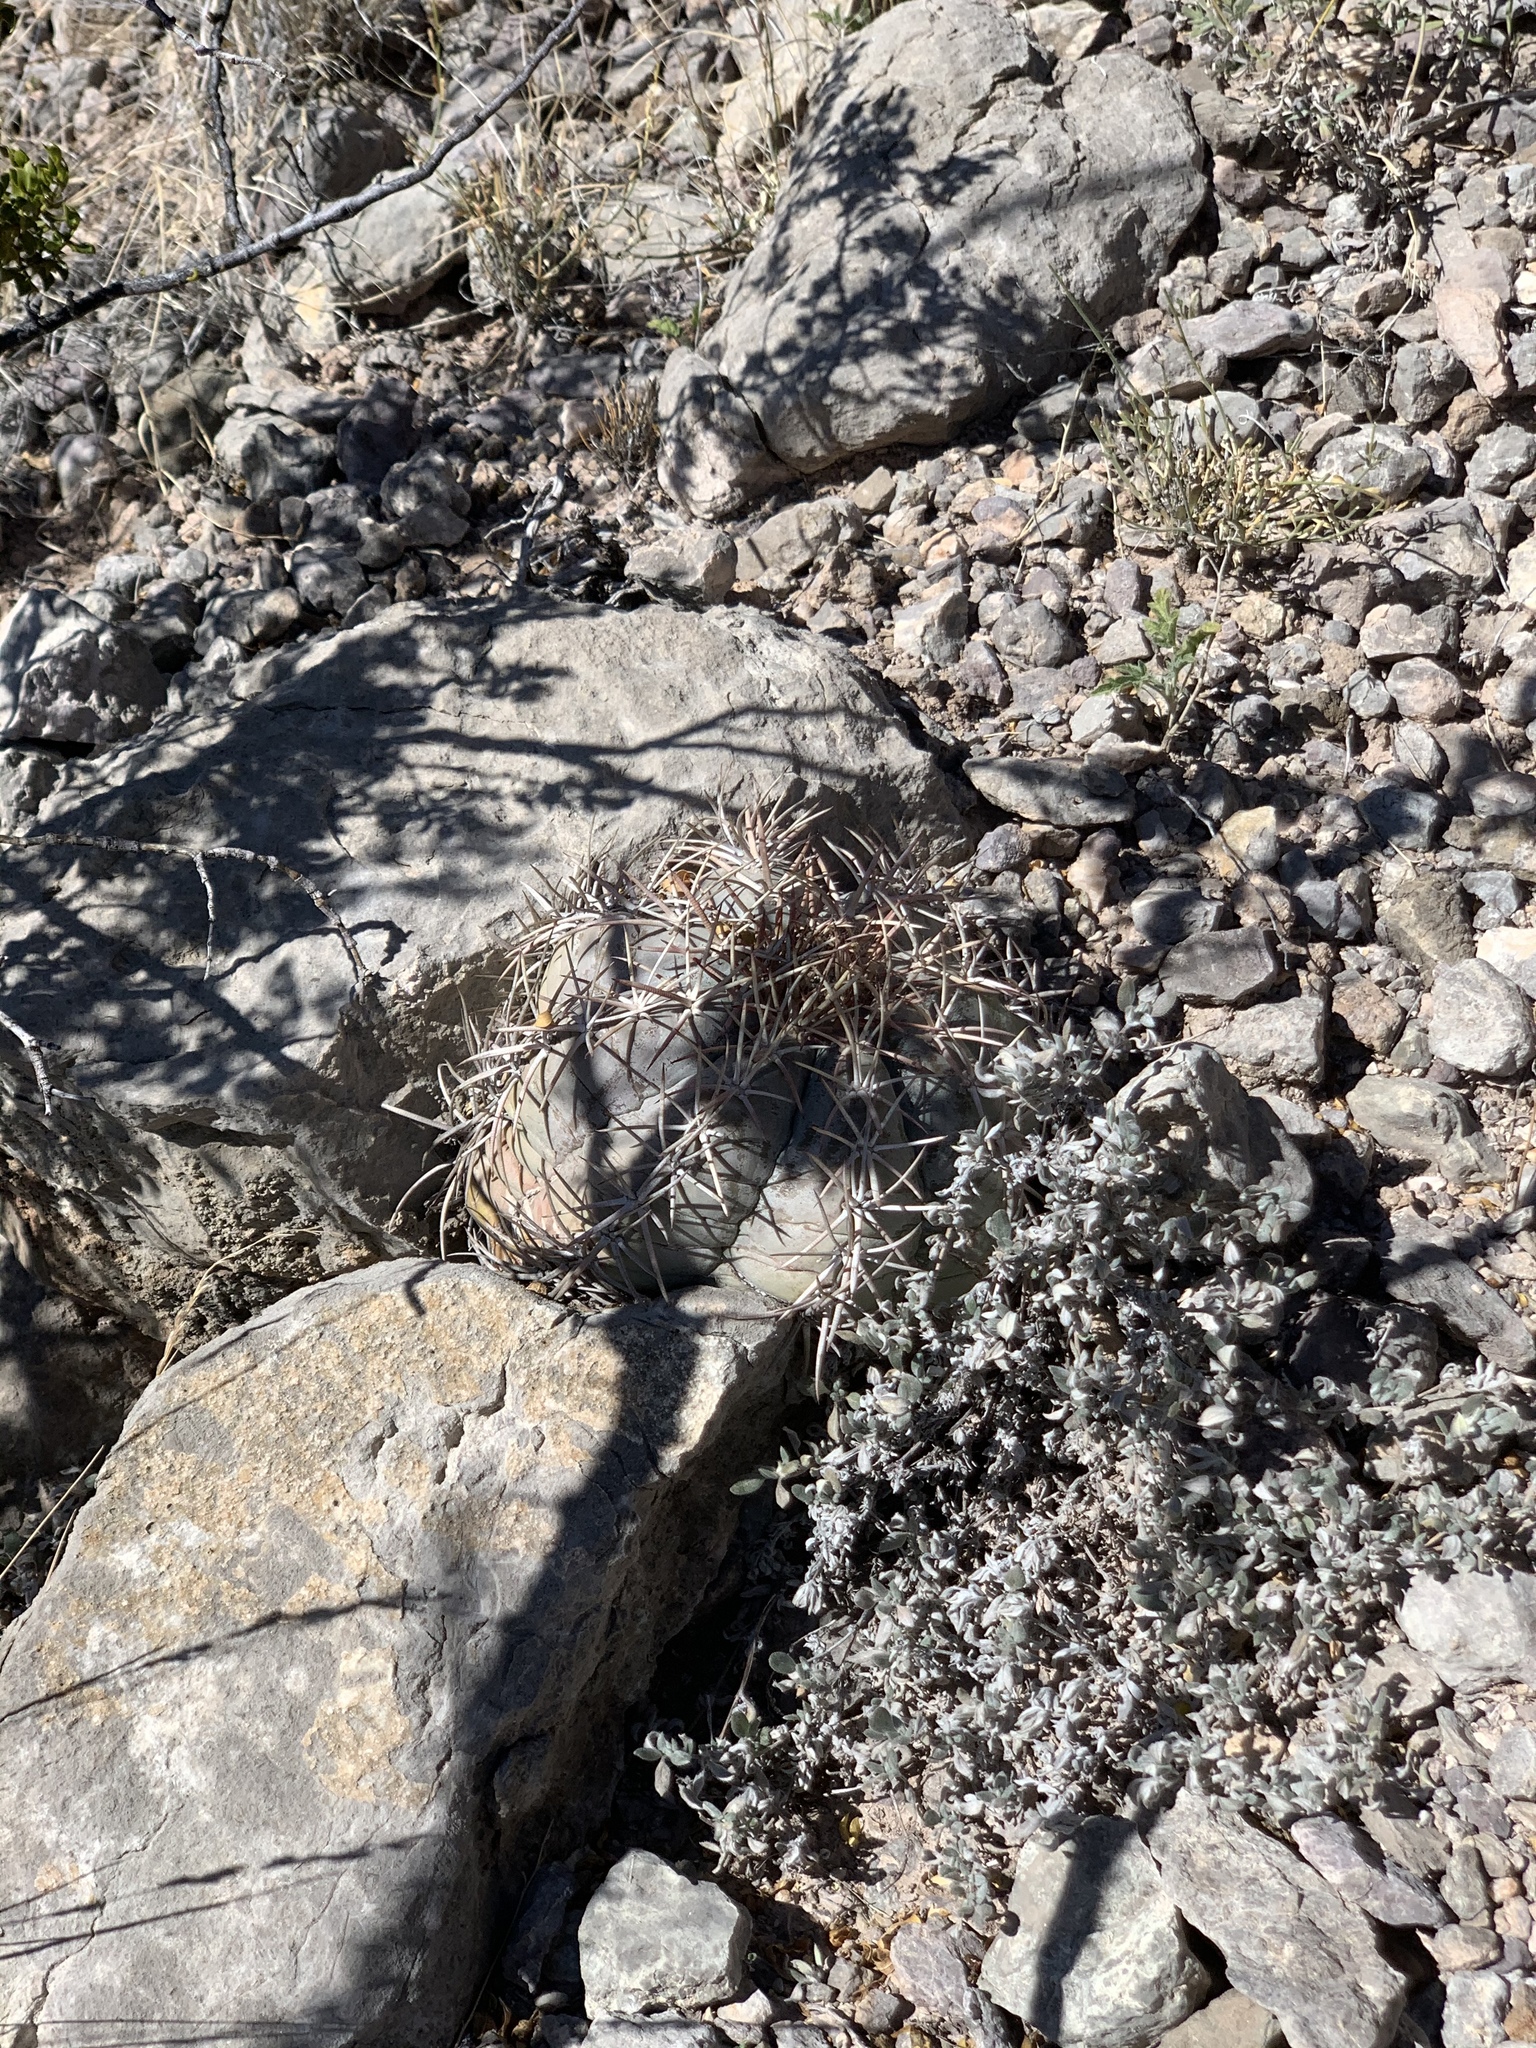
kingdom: Plantae
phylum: Tracheophyta
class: Magnoliopsida
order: Caryophyllales
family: Cactaceae
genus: Echinocactus
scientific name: Echinocactus horizonthalonius
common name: Devilshead
